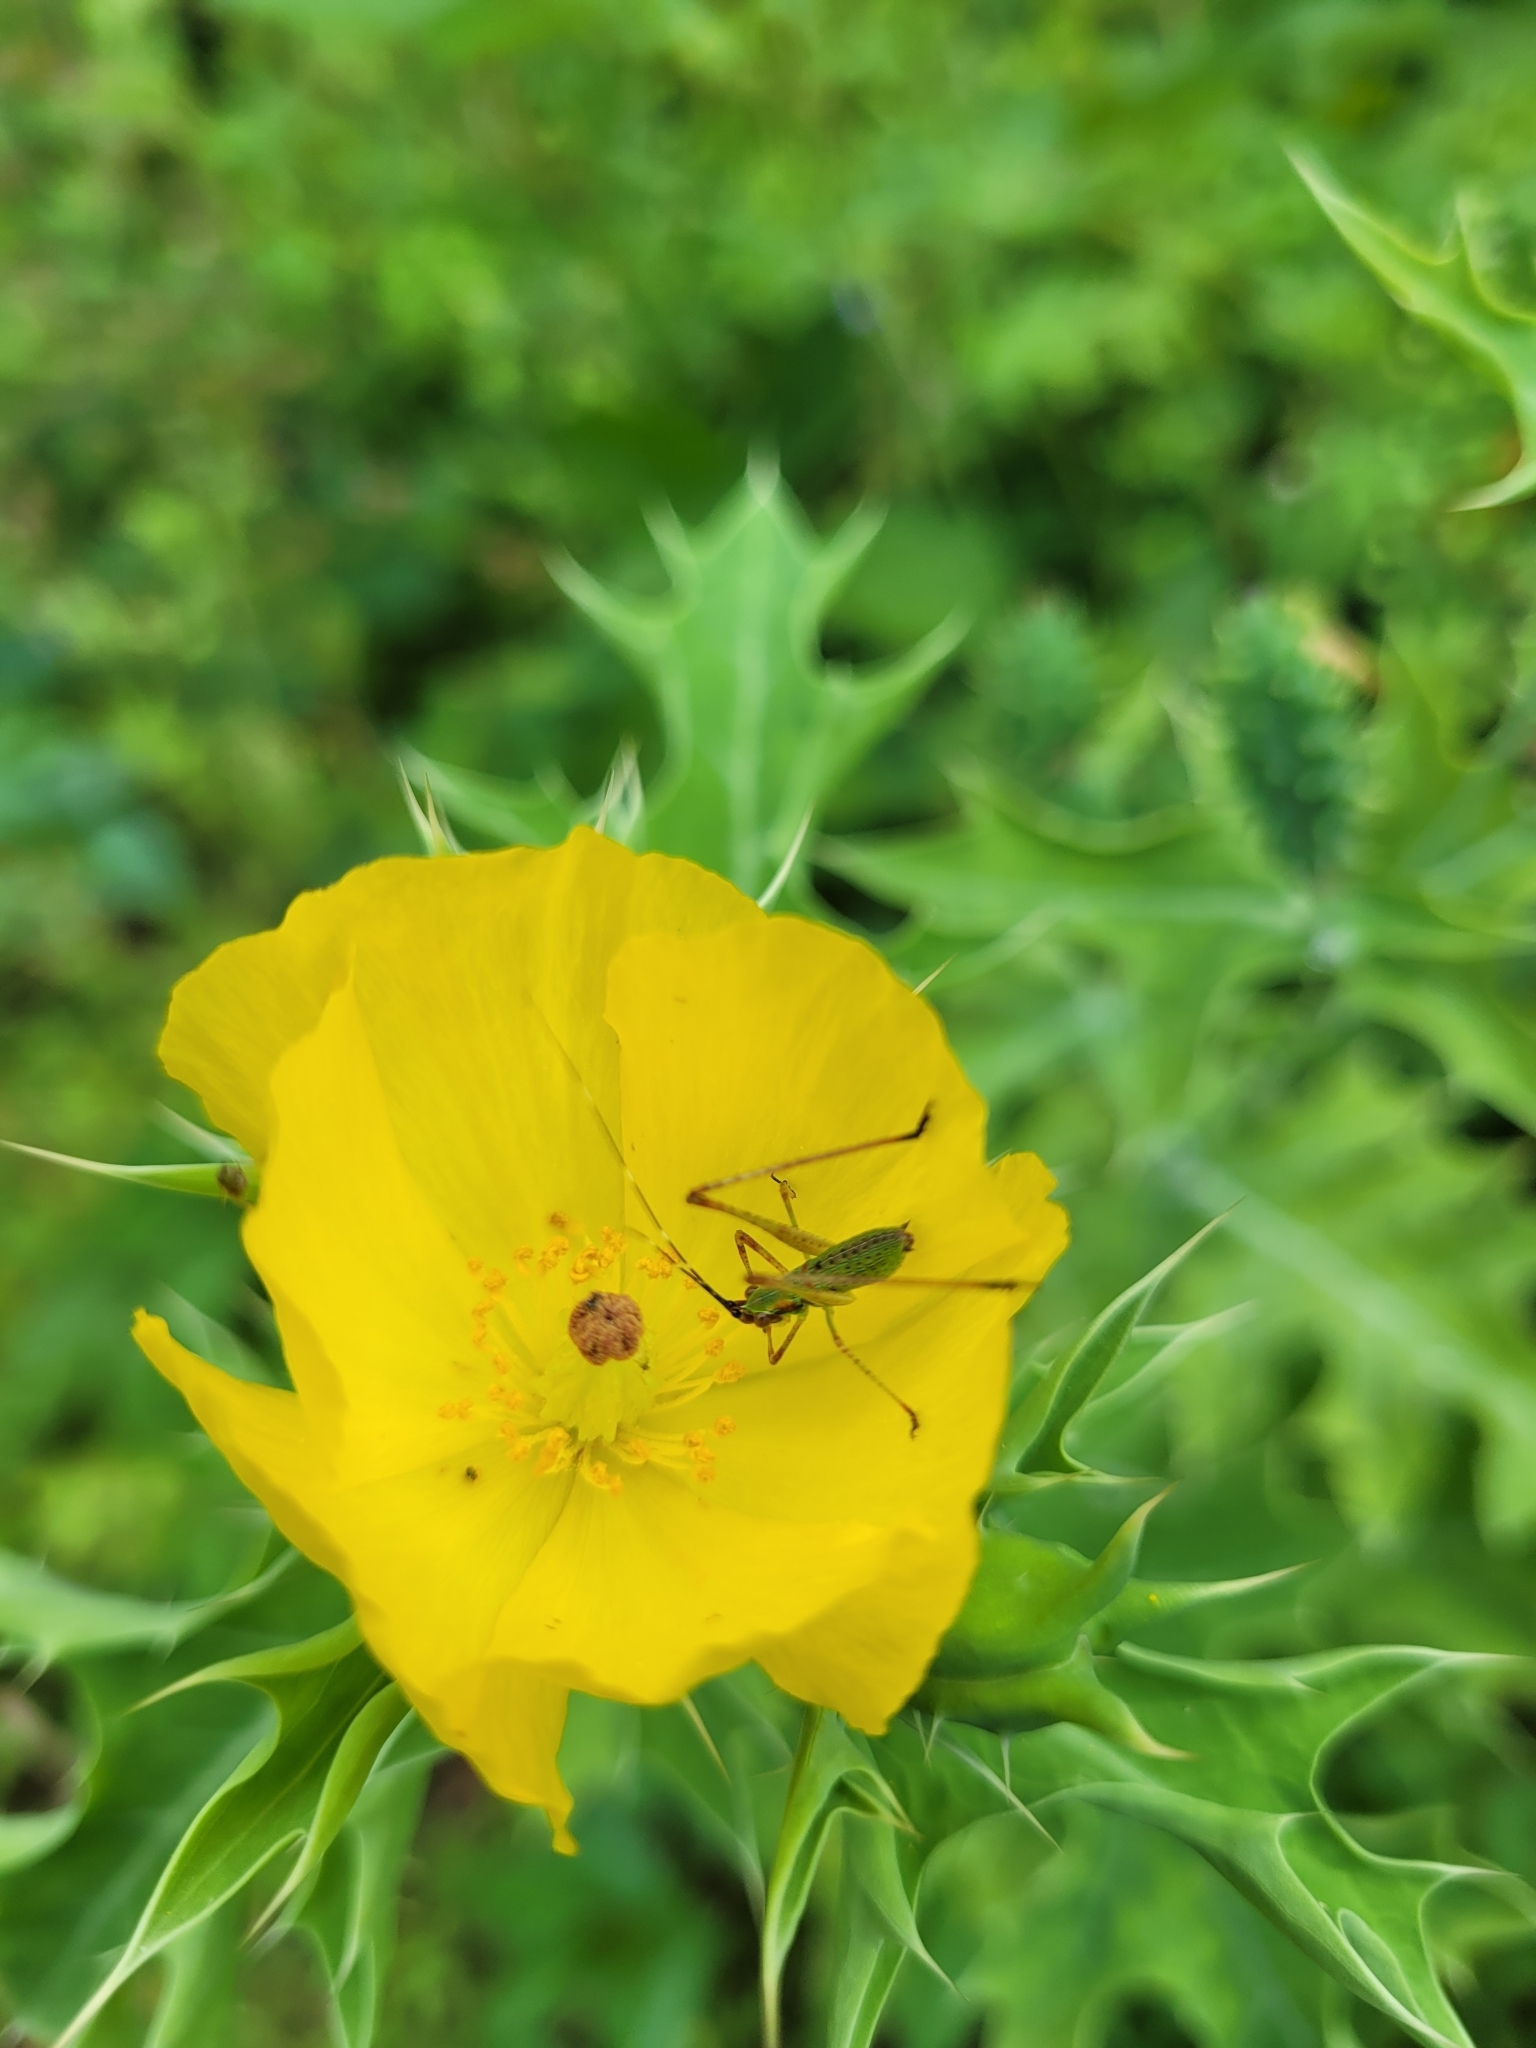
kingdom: Plantae
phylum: Tracheophyta
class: Magnoliopsida
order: Ranunculales
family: Papaveraceae
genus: Argemone
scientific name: Argemone mexicana
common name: Mexican poppy
